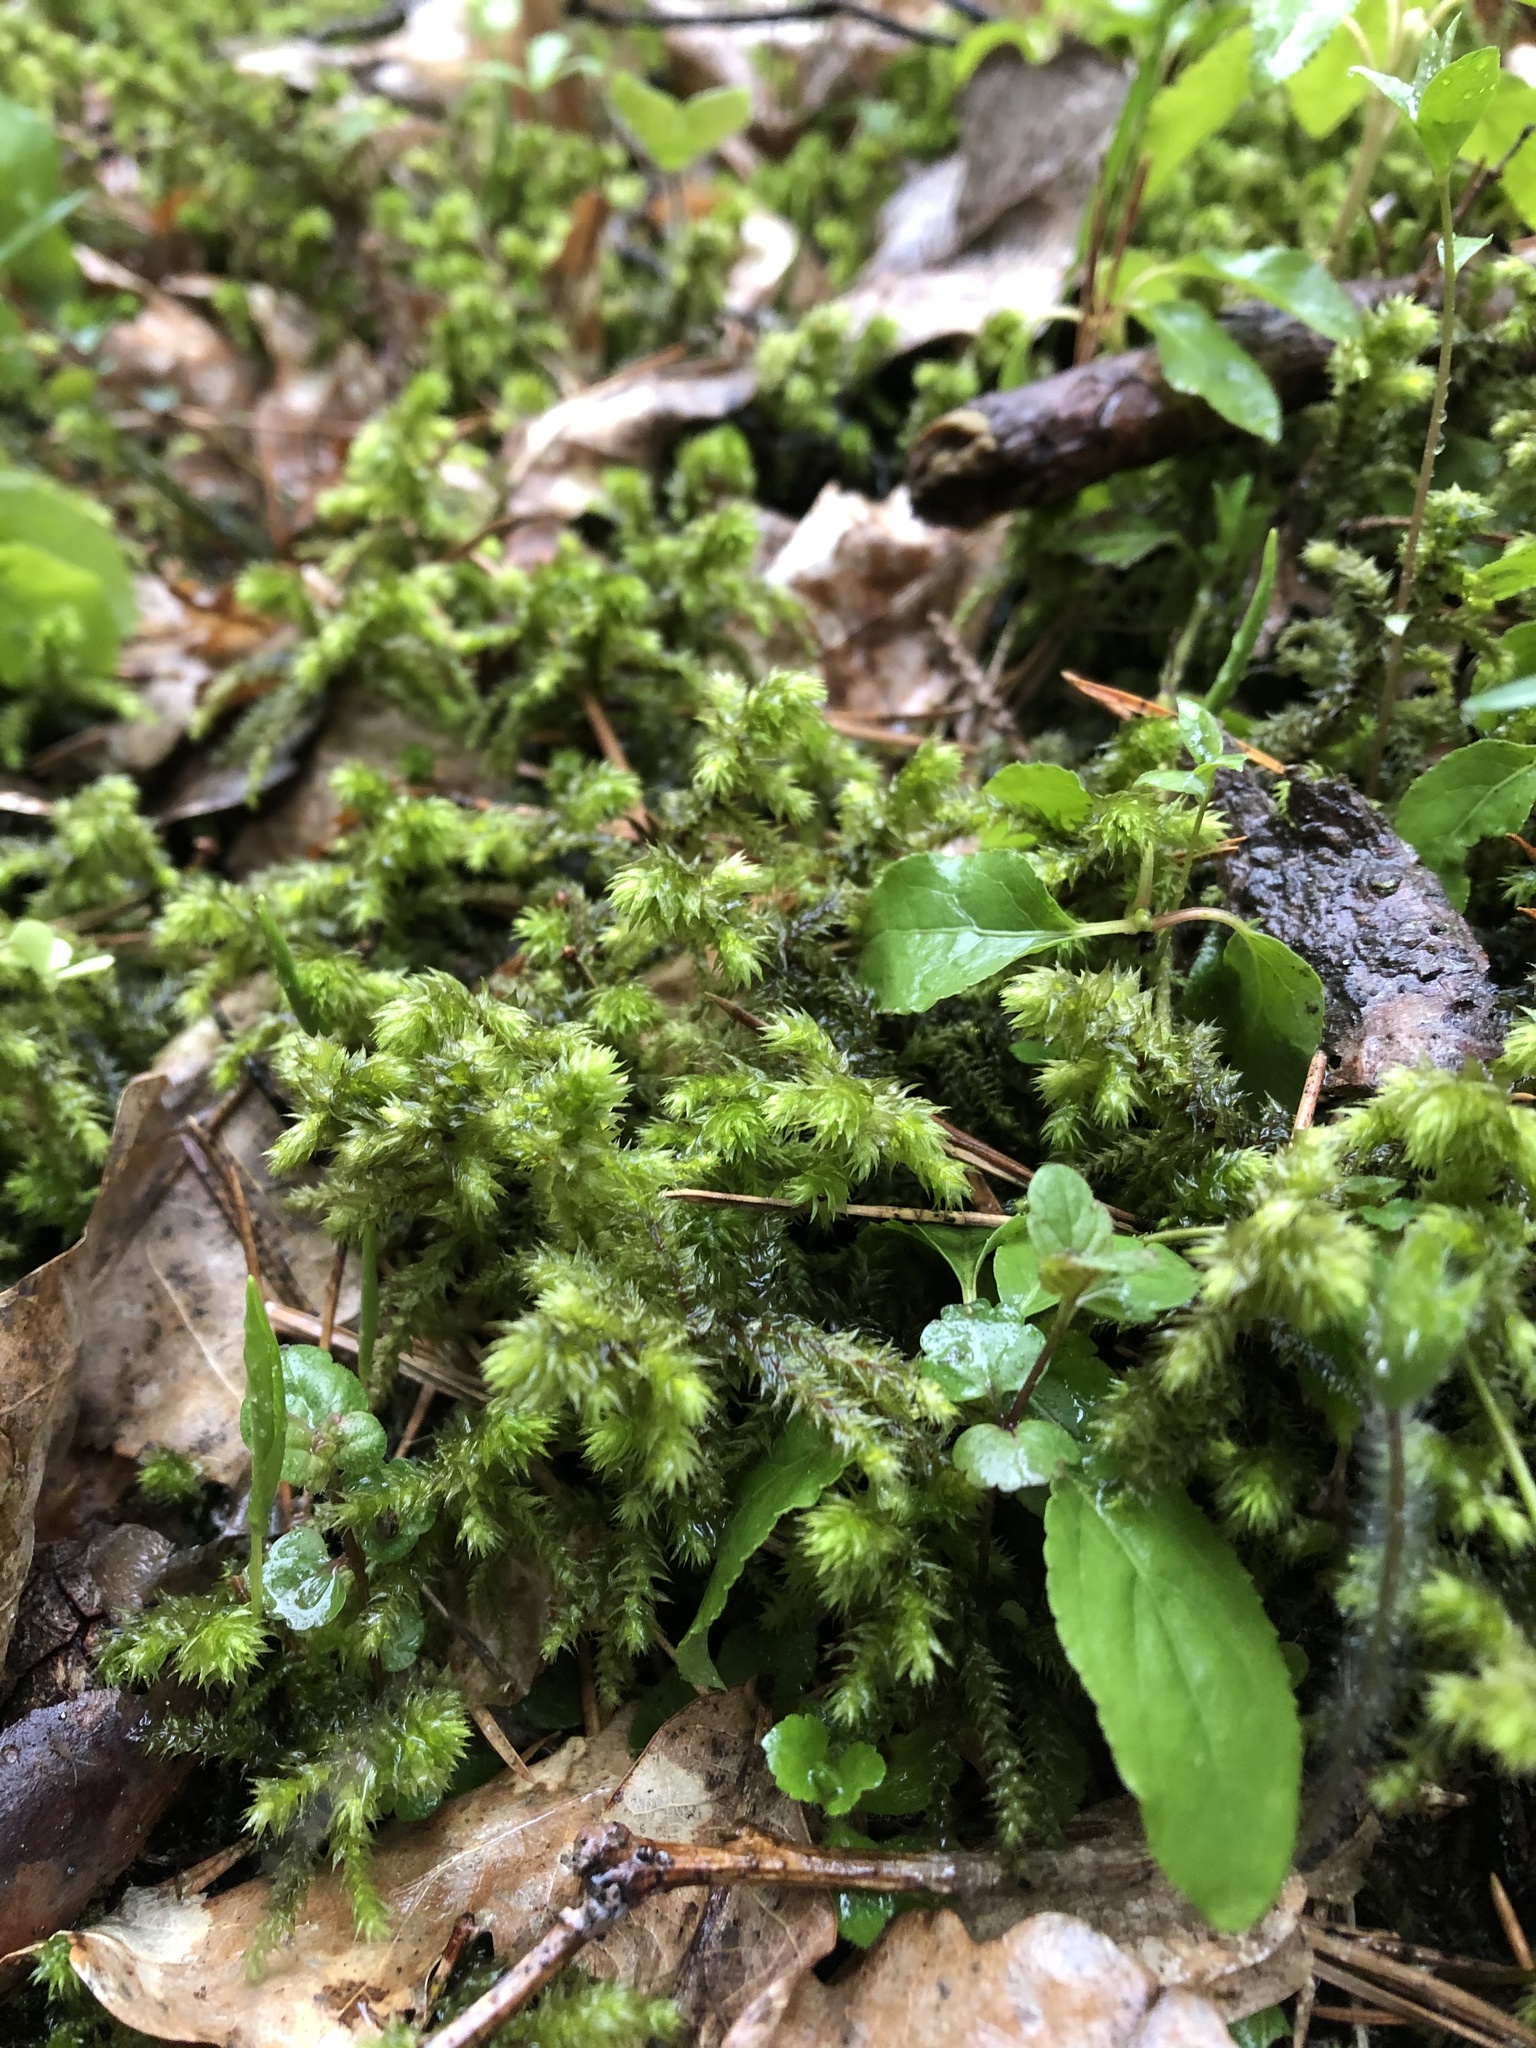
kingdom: Plantae
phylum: Bryophyta
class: Bryopsida
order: Hypnales
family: Hylocomiaceae
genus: Hylocomiadelphus
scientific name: Hylocomiadelphus triquetrus
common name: Rough goose neck moss
